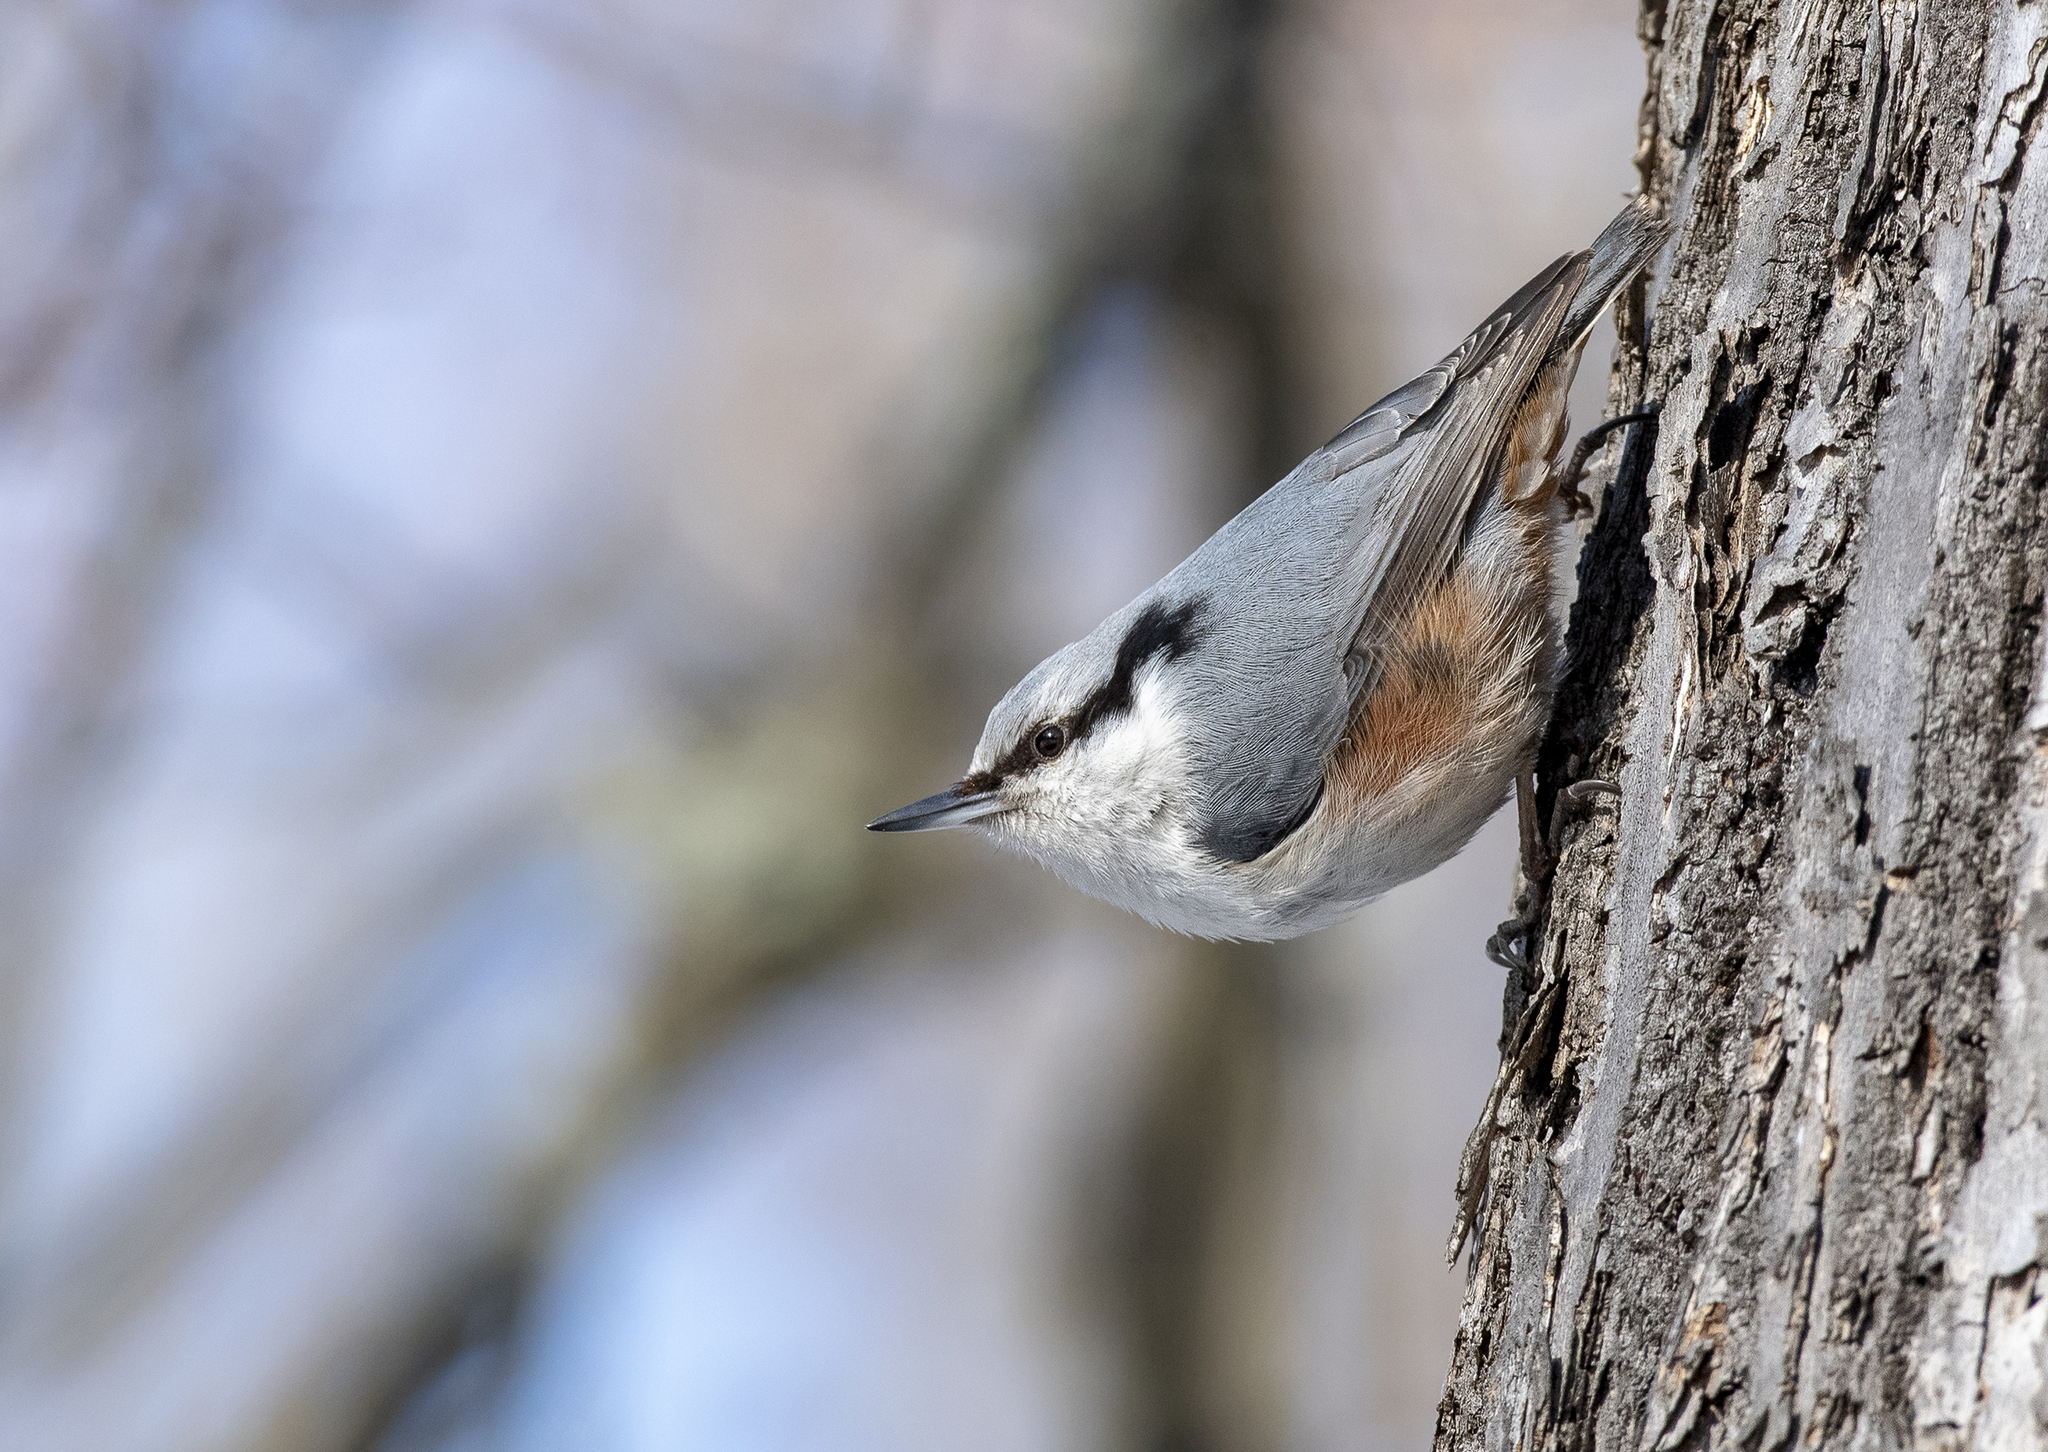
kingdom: Animalia
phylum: Chordata
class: Aves
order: Passeriformes
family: Sittidae
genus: Sitta
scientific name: Sitta europaea
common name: Eurasian nuthatch
